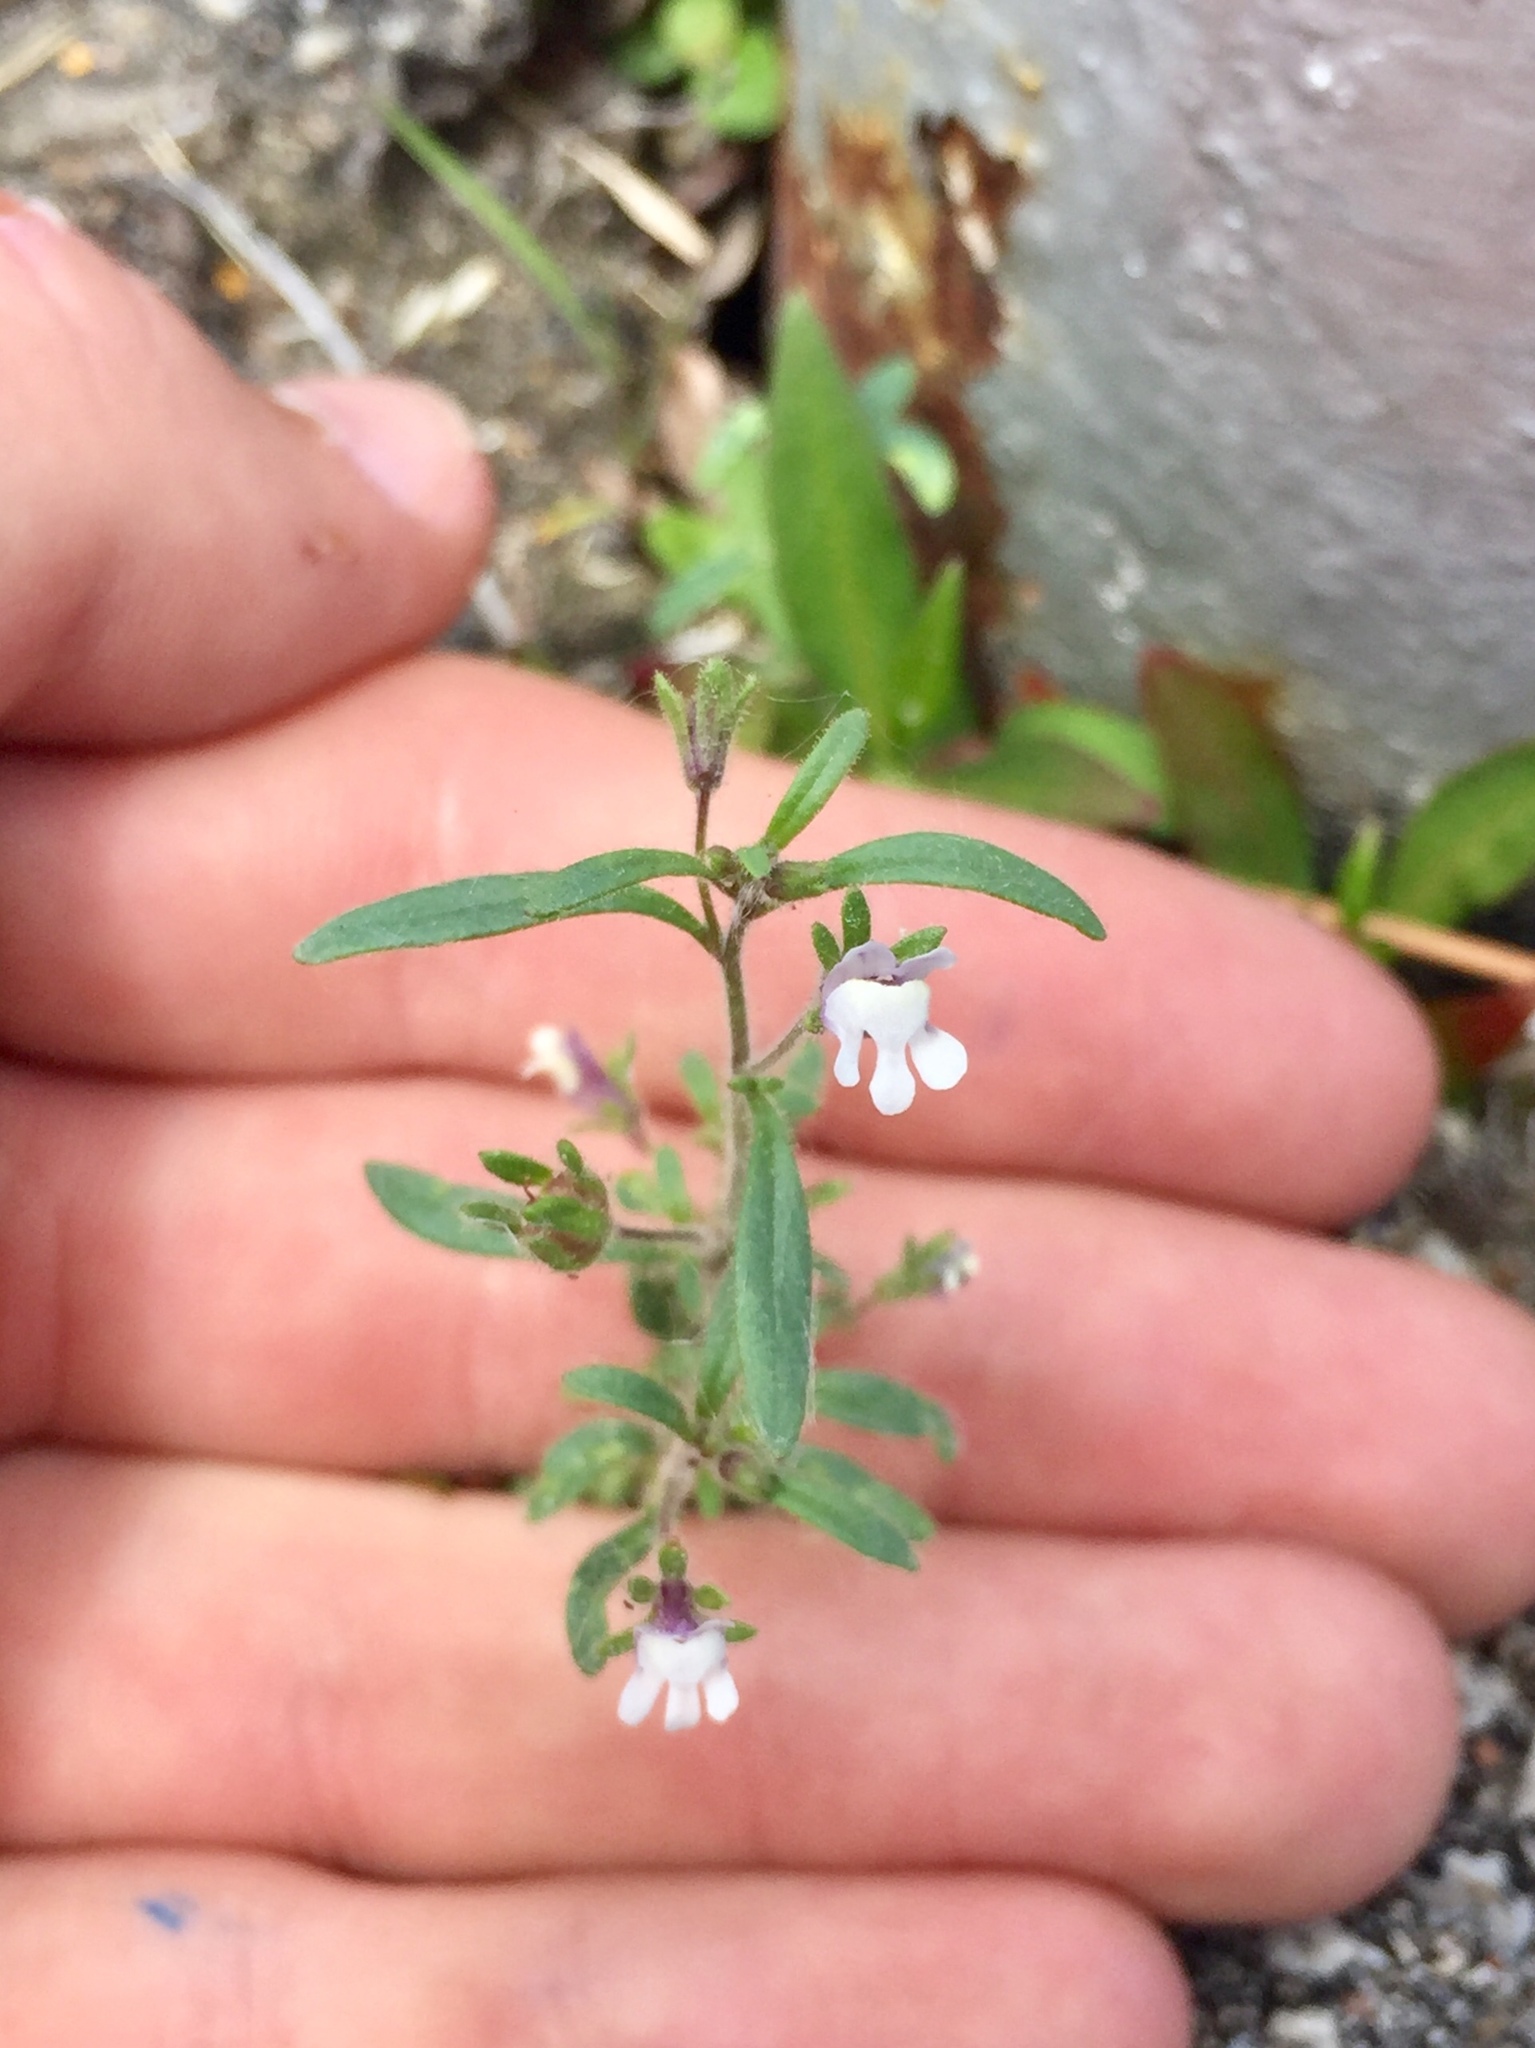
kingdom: Plantae
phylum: Tracheophyta
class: Magnoliopsida
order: Lamiales
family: Plantaginaceae
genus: Chaenorhinum
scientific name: Chaenorhinum minus
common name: Dwarf snapdragon
